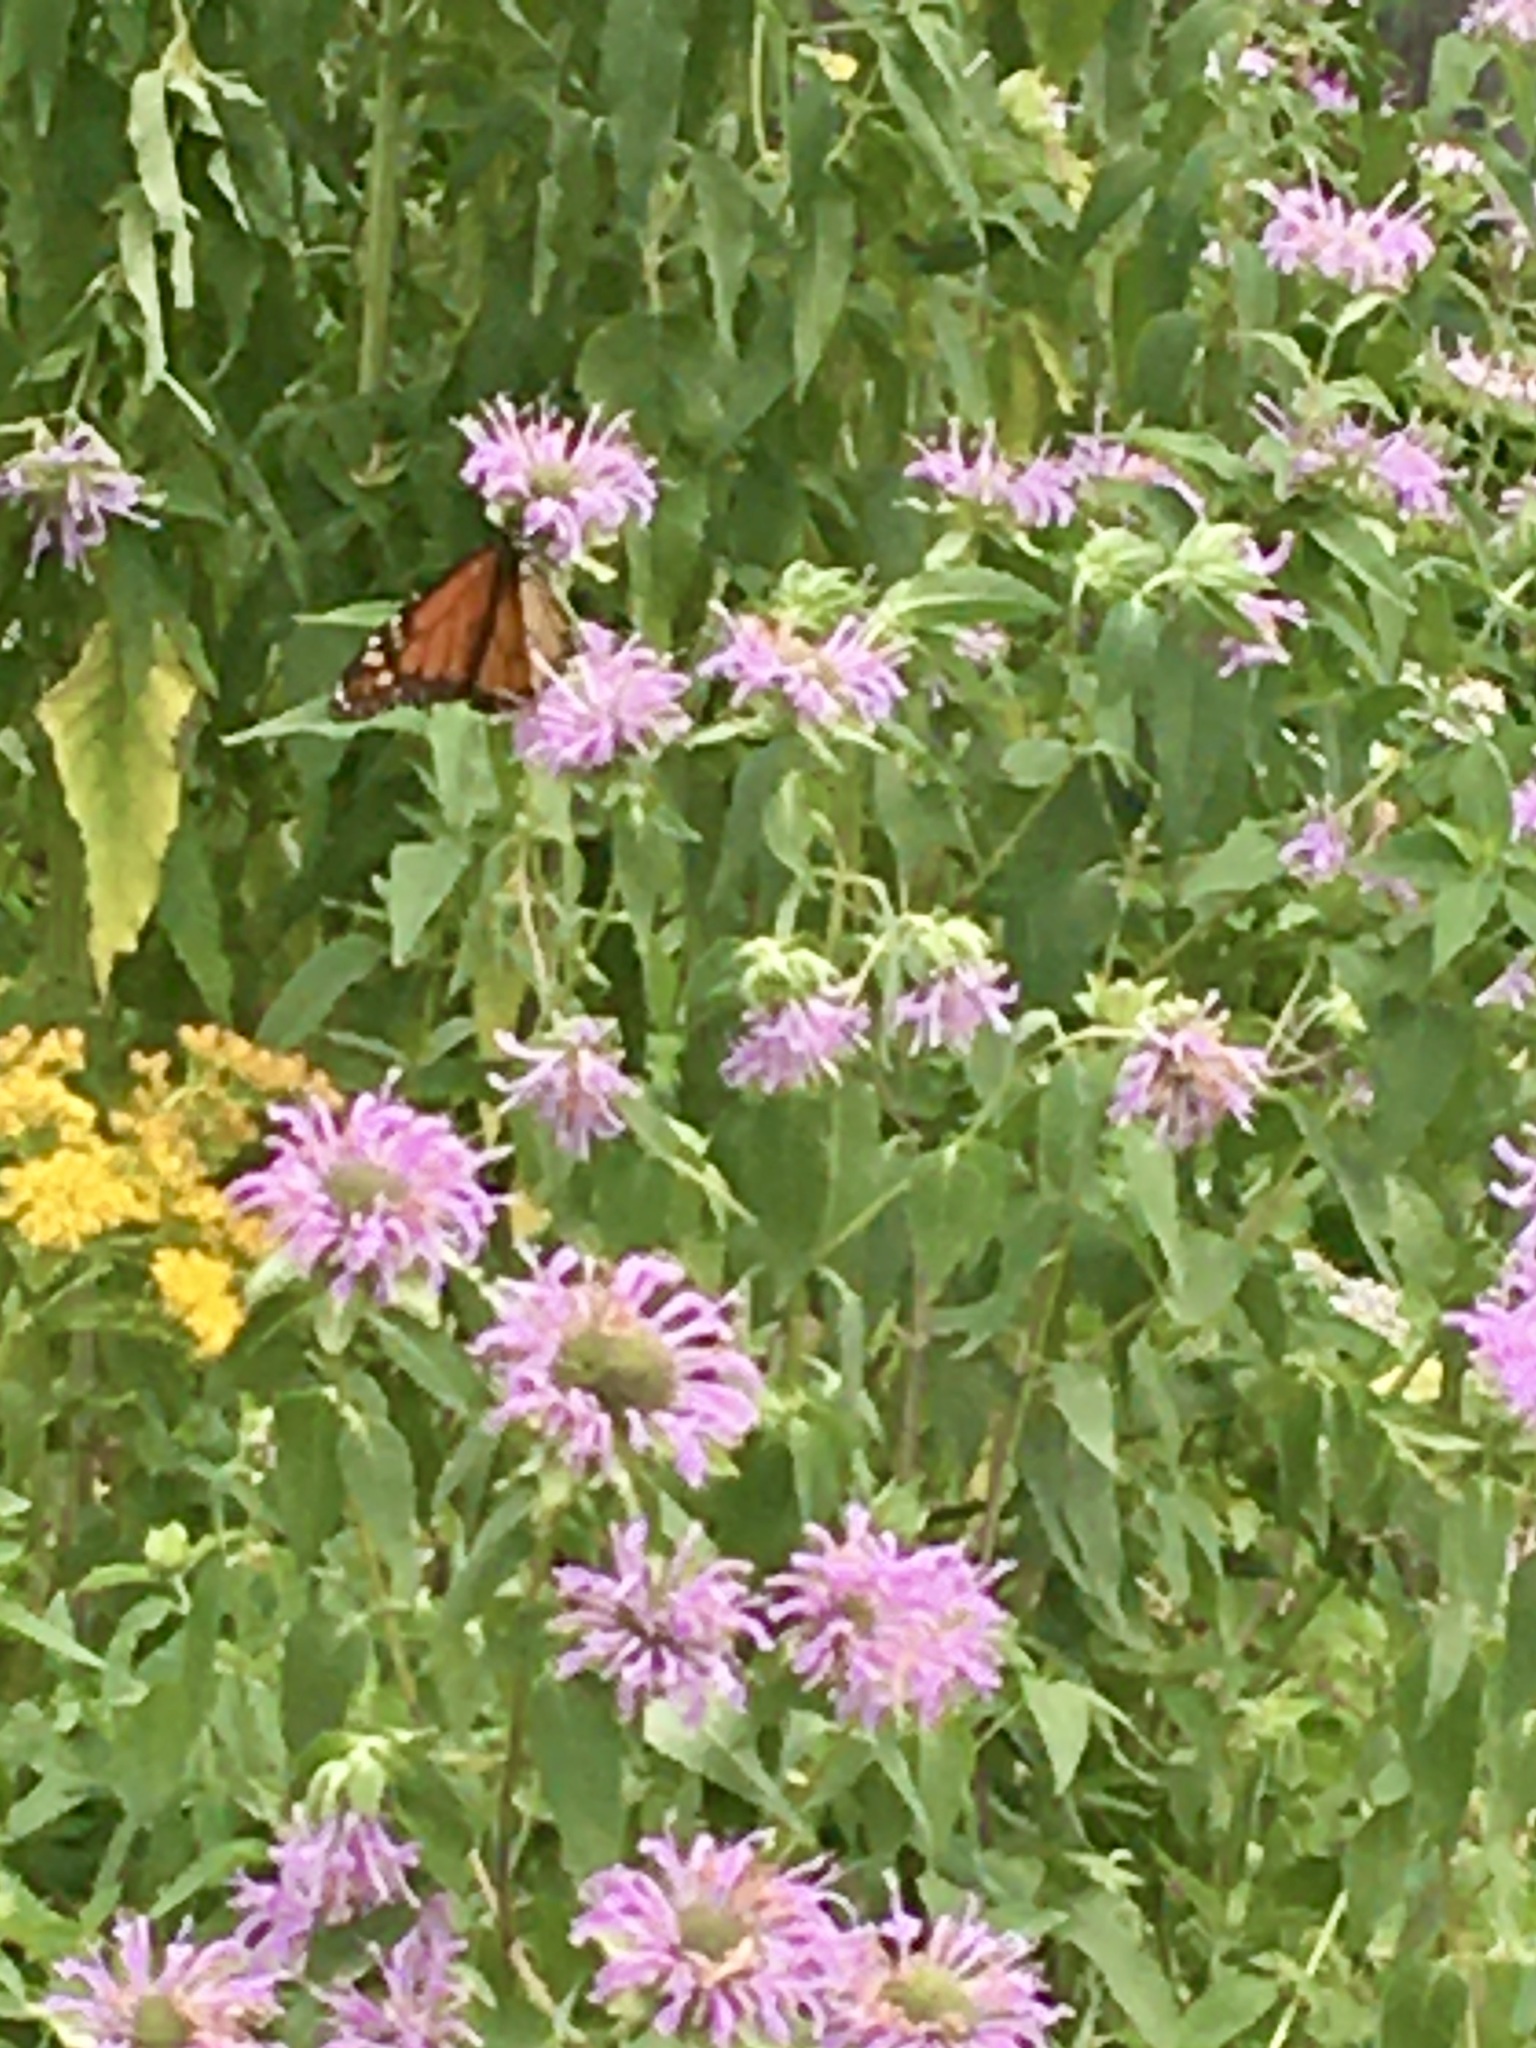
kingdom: Animalia
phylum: Arthropoda
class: Insecta
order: Lepidoptera
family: Nymphalidae
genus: Danaus
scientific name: Danaus plexippus
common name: Monarch
